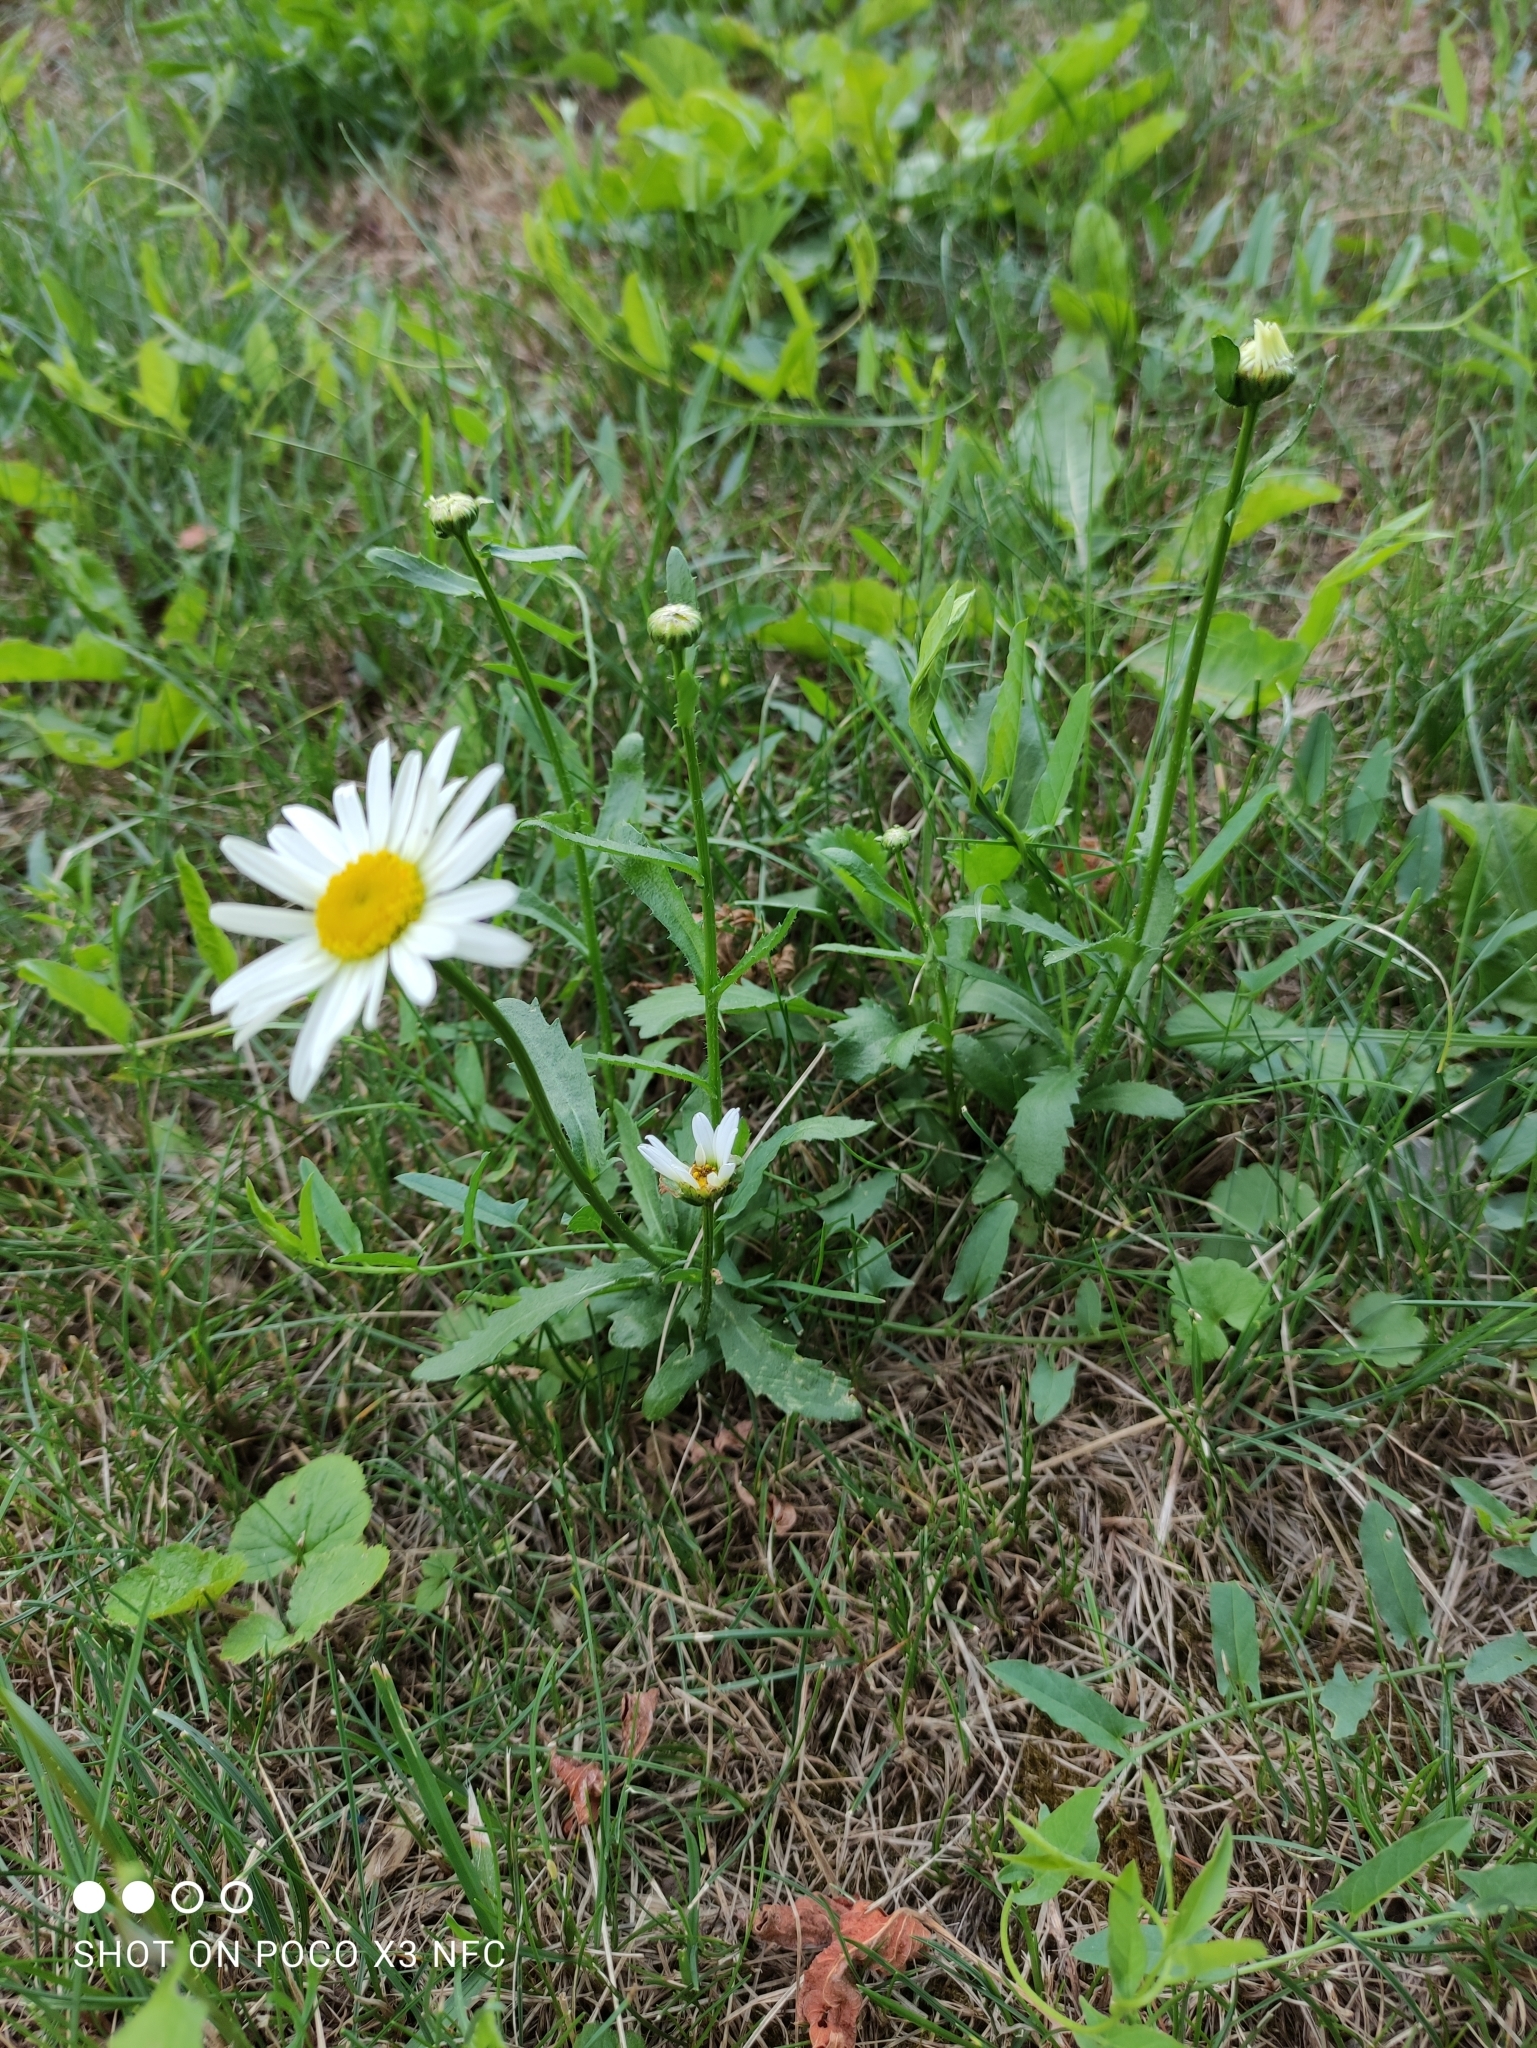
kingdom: Plantae
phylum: Tracheophyta
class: Magnoliopsida
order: Asterales
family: Asteraceae
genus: Leucanthemum
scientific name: Leucanthemum vulgare
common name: Oxeye daisy
